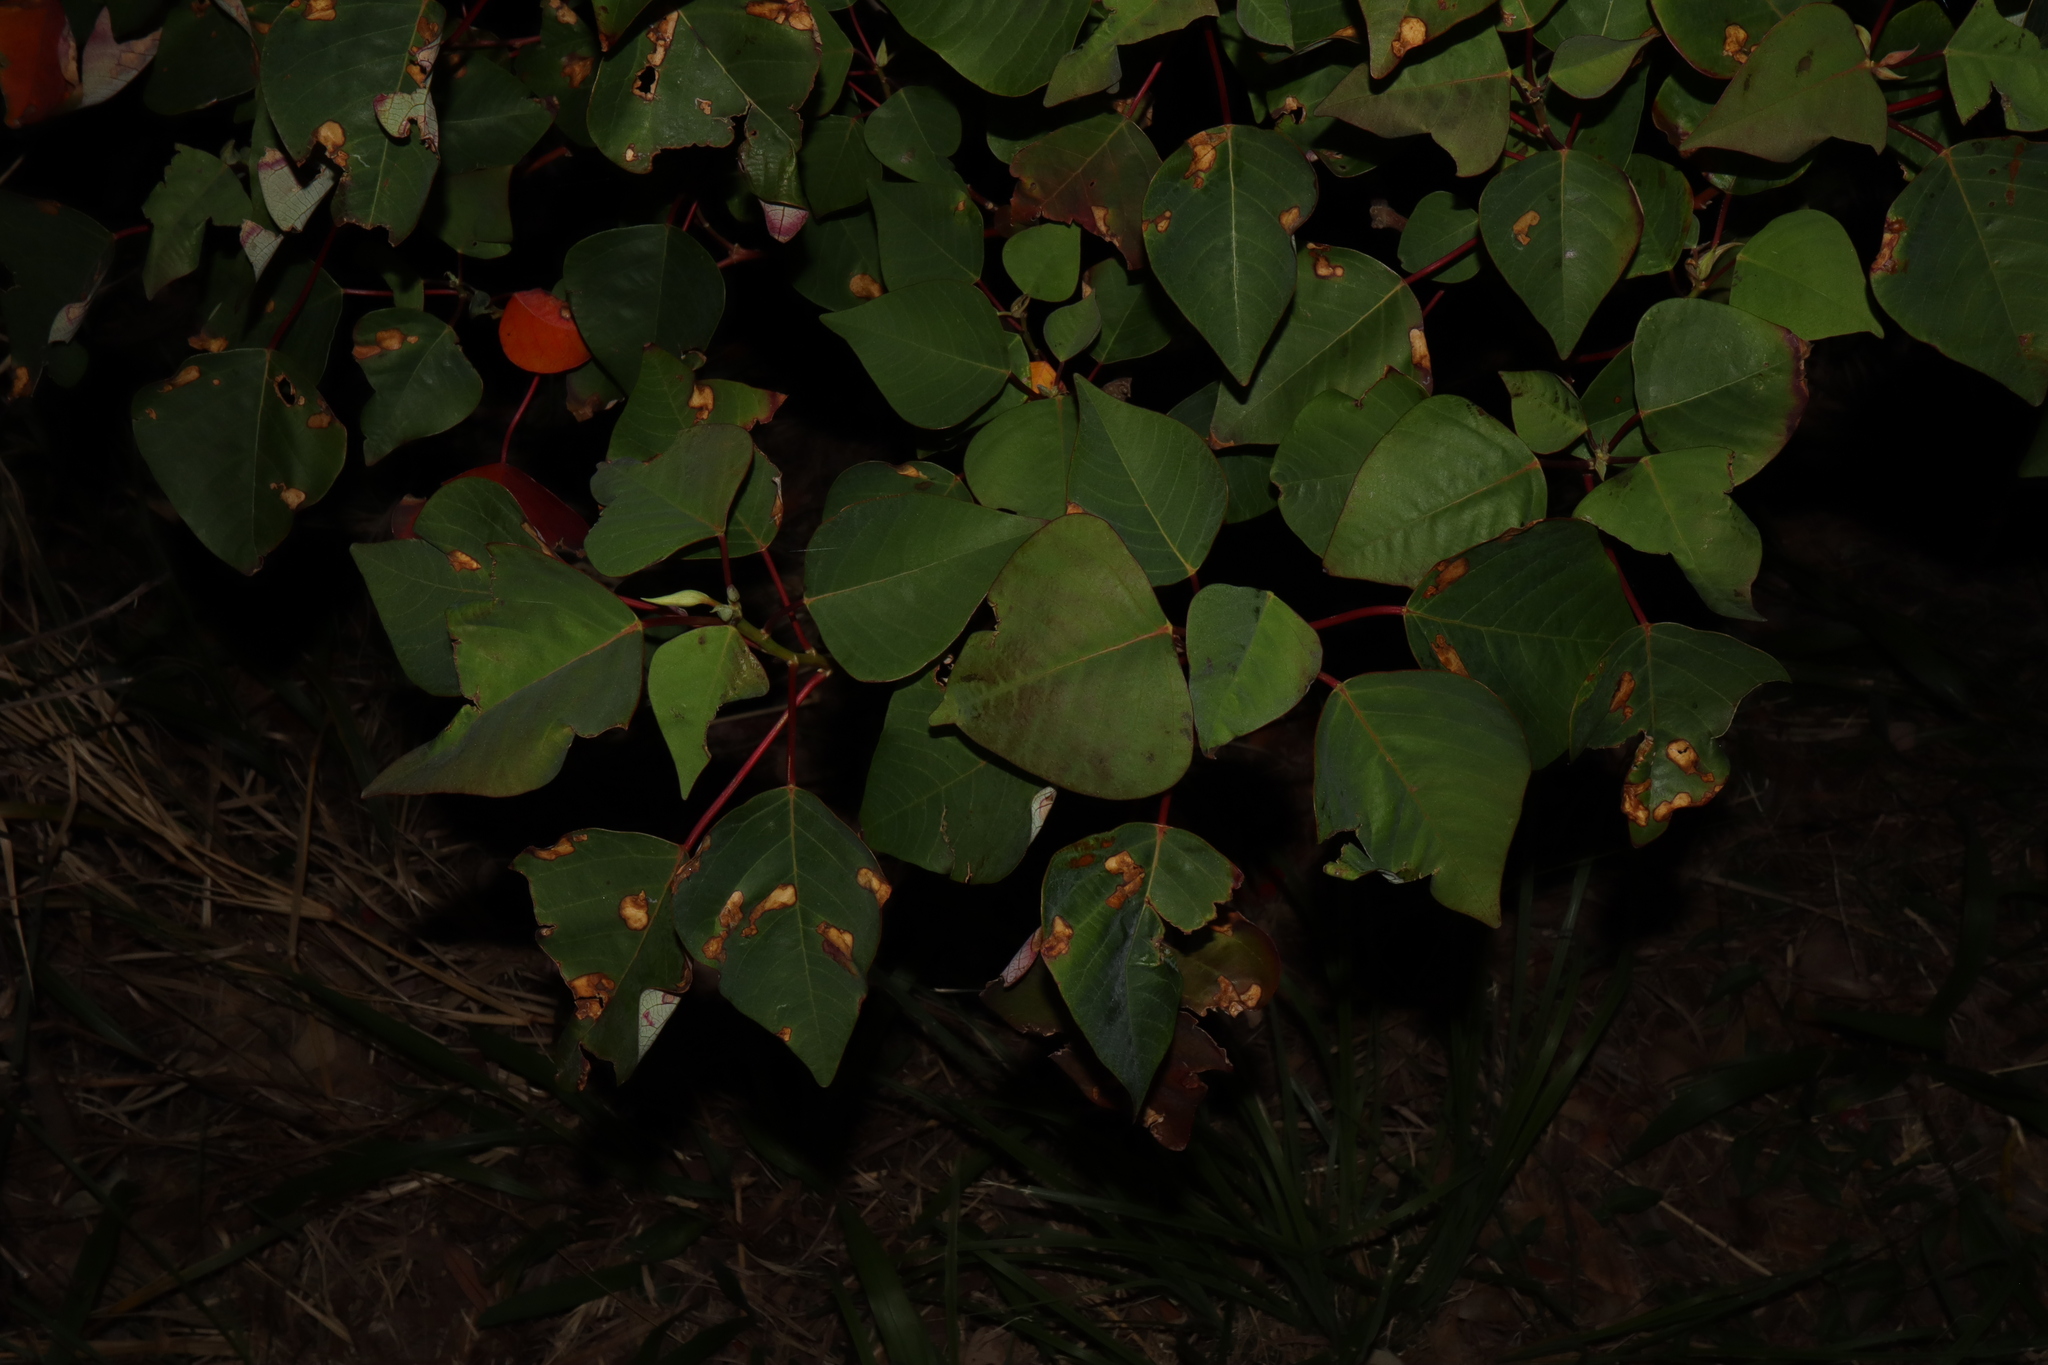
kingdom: Plantae
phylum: Tracheophyta
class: Magnoliopsida
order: Malpighiales
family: Euphorbiaceae
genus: Homalanthus
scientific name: Homalanthus populifolius
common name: Queensland poplar
